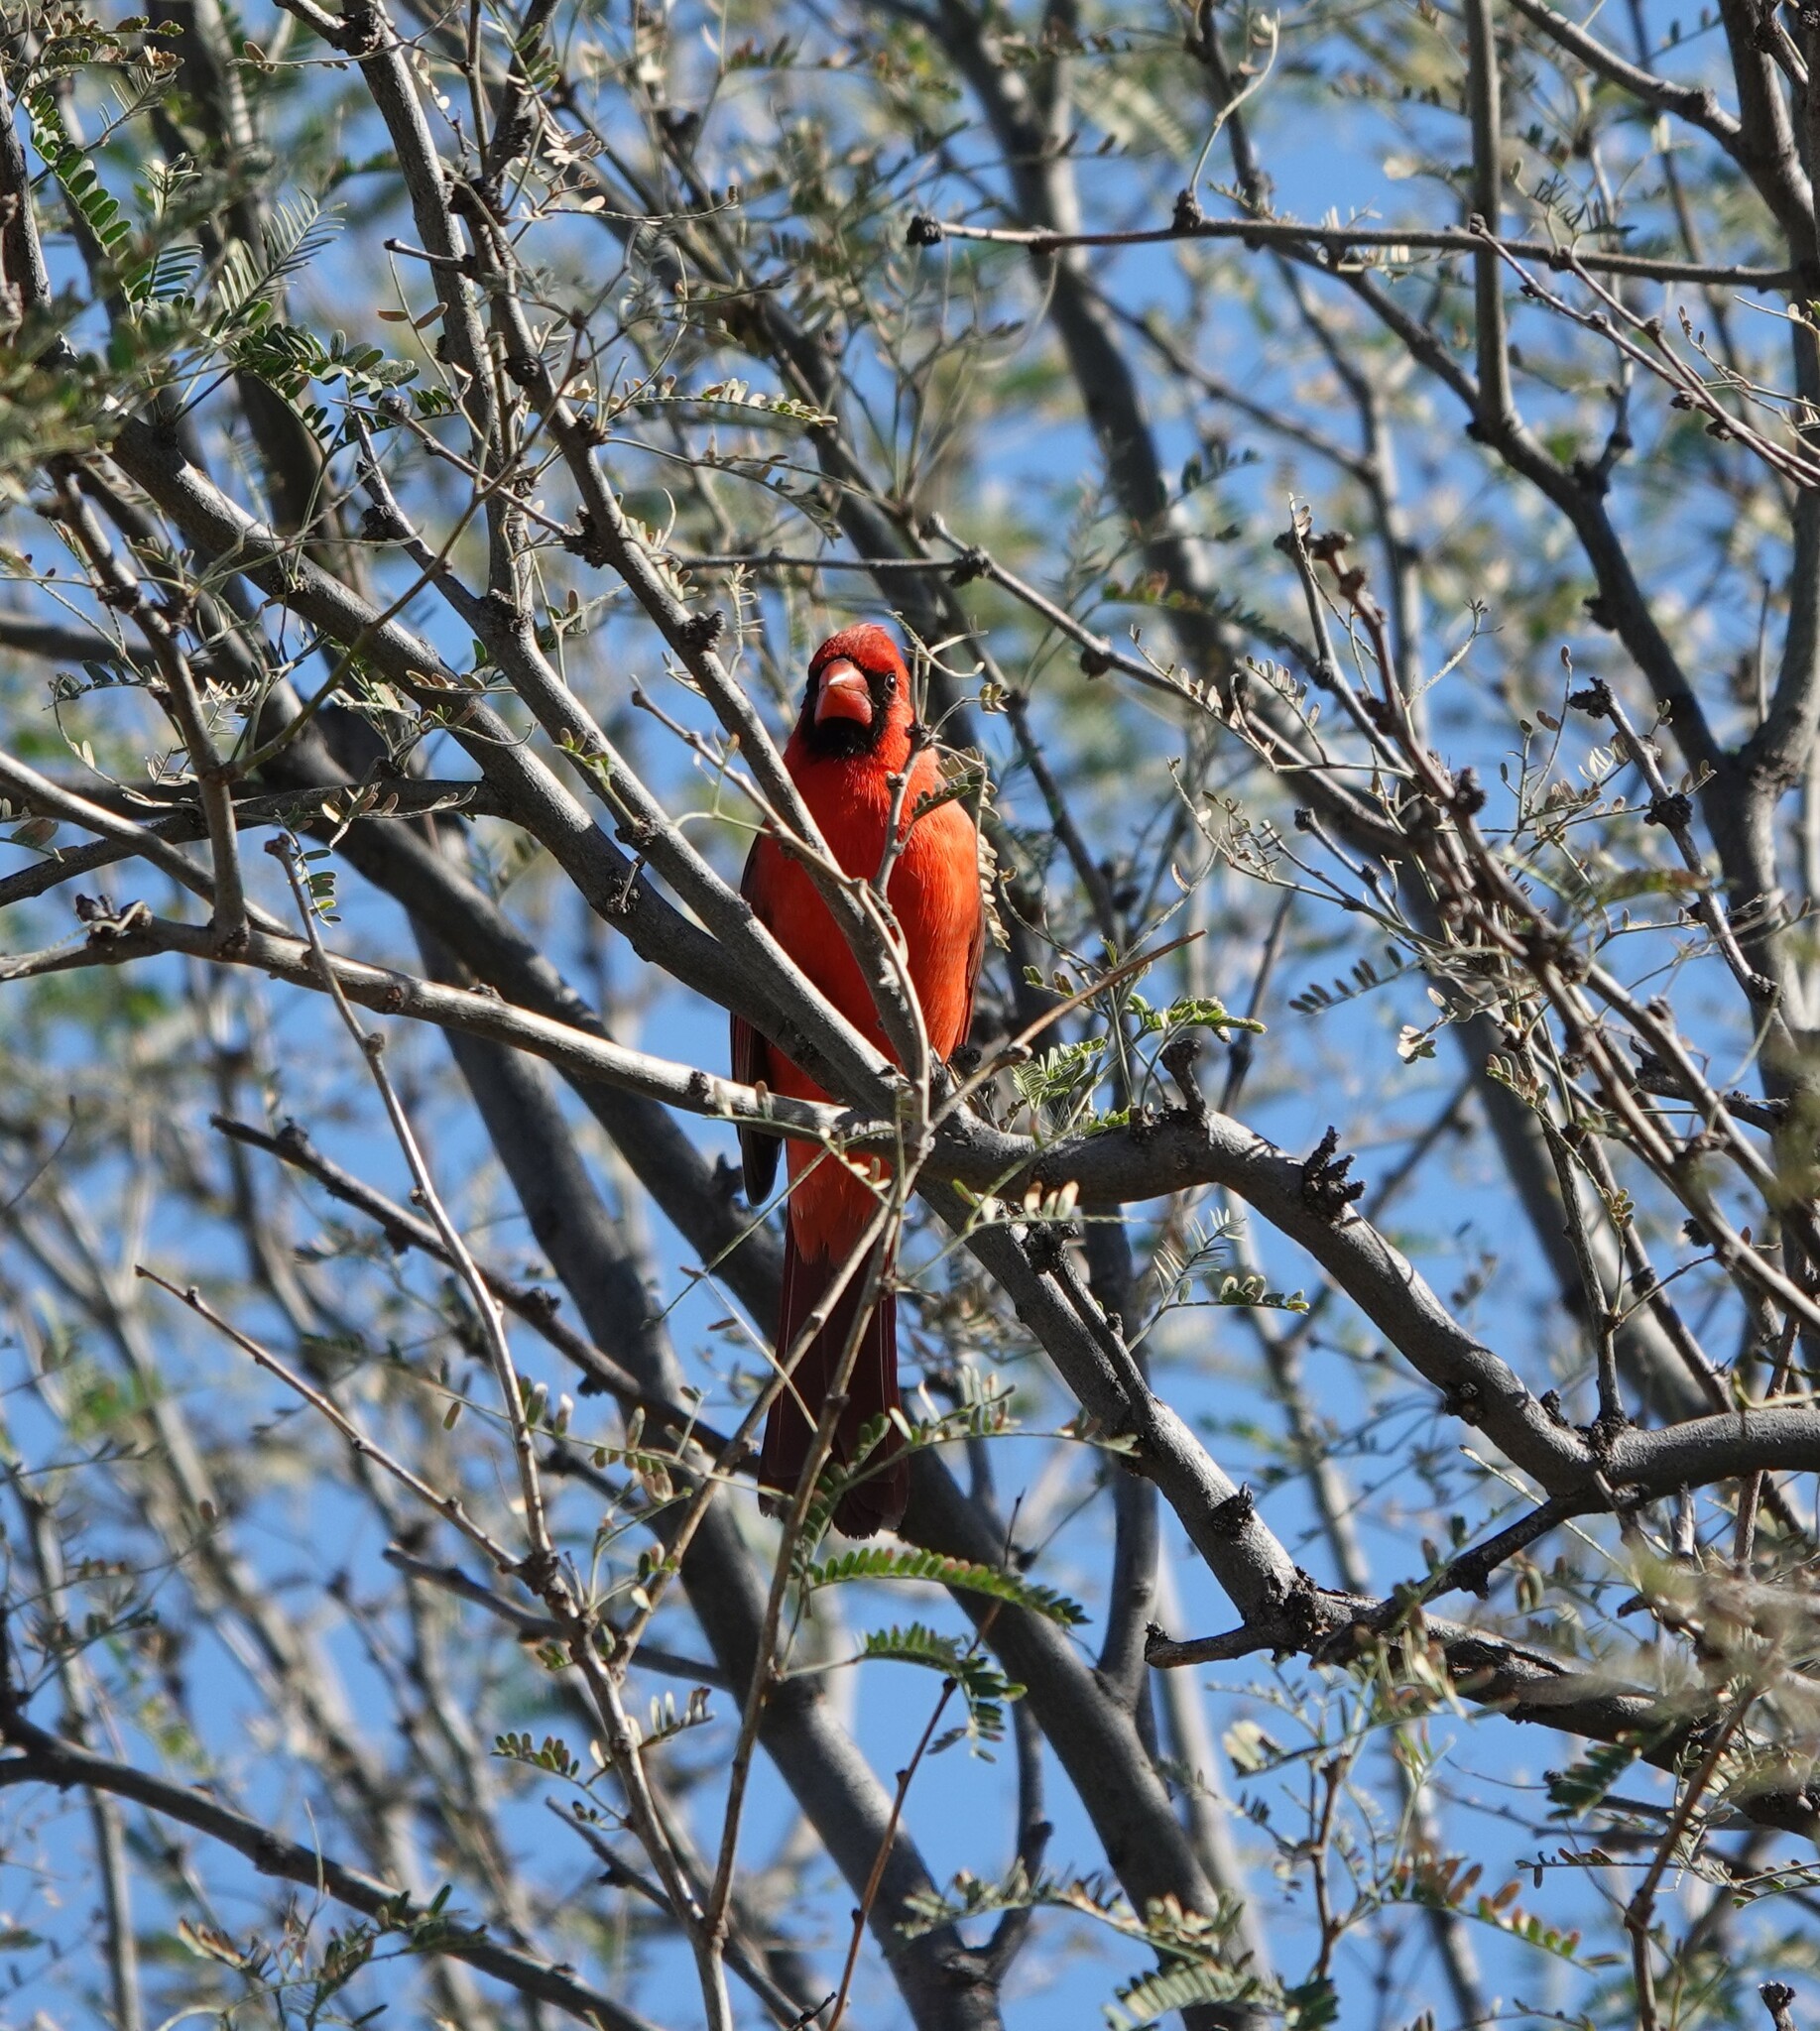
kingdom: Animalia
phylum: Chordata
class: Aves
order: Passeriformes
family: Cardinalidae
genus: Cardinalis
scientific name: Cardinalis cardinalis
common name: Northern cardinal
